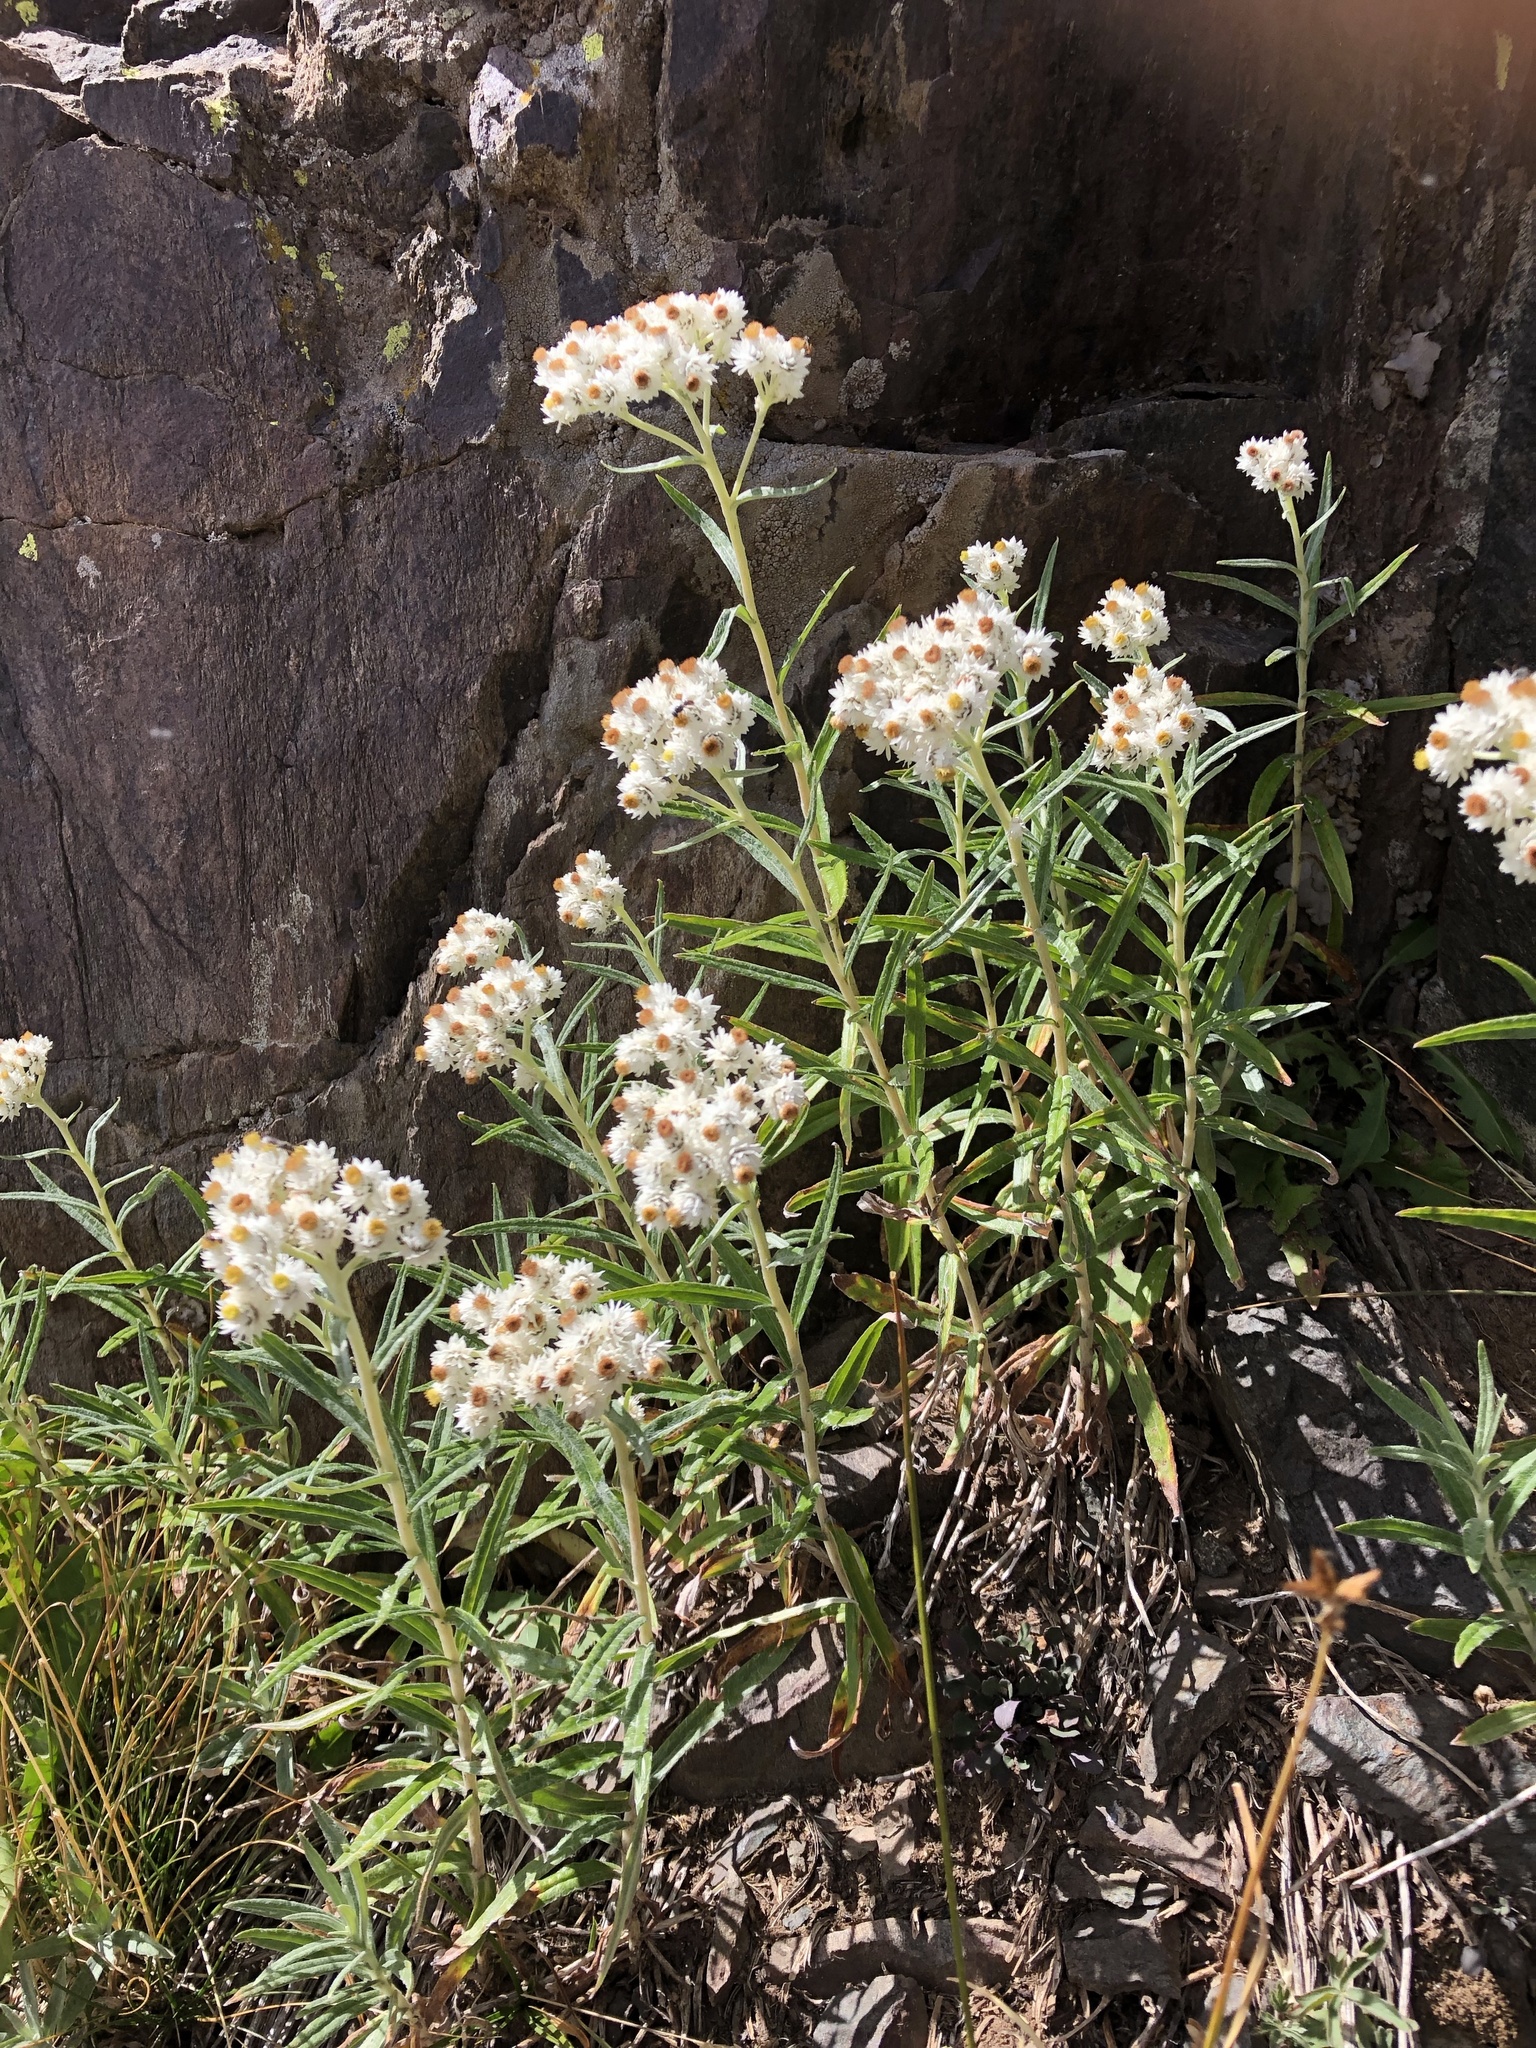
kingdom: Plantae
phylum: Tracheophyta
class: Magnoliopsida
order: Asterales
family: Asteraceae
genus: Anaphalis
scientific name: Anaphalis margaritacea
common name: Pearly everlasting
